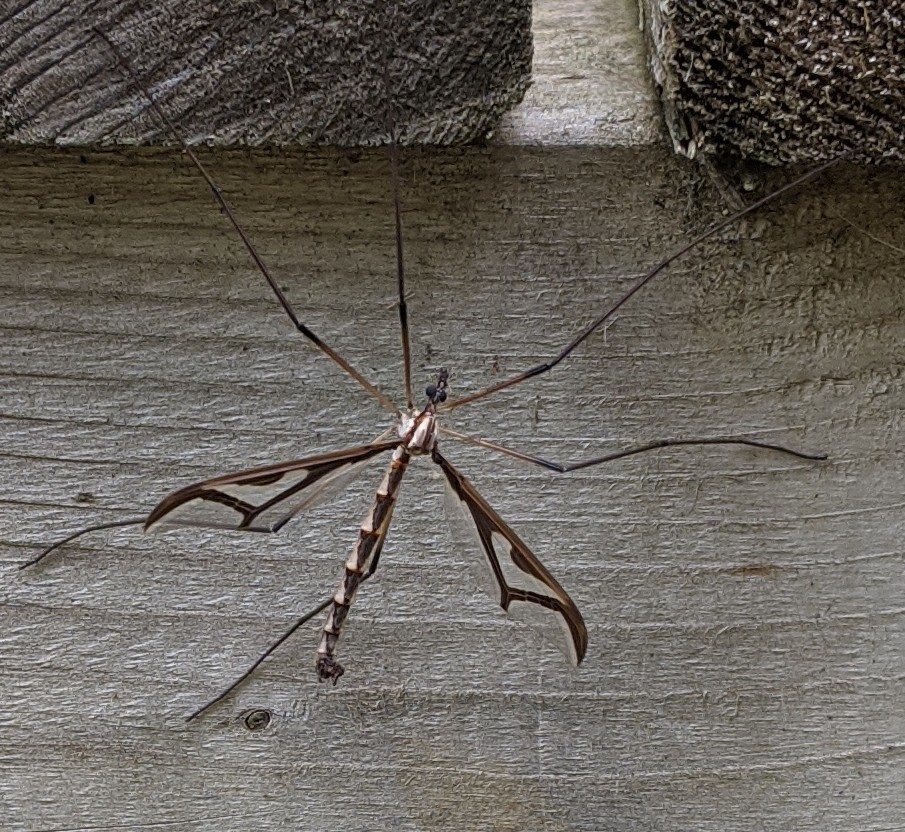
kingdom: Animalia
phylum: Arthropoda
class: Insecta
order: Diptera
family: Pediciidae
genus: Pedicia
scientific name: Pedicia albivitta
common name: Giant eastern crane fly
